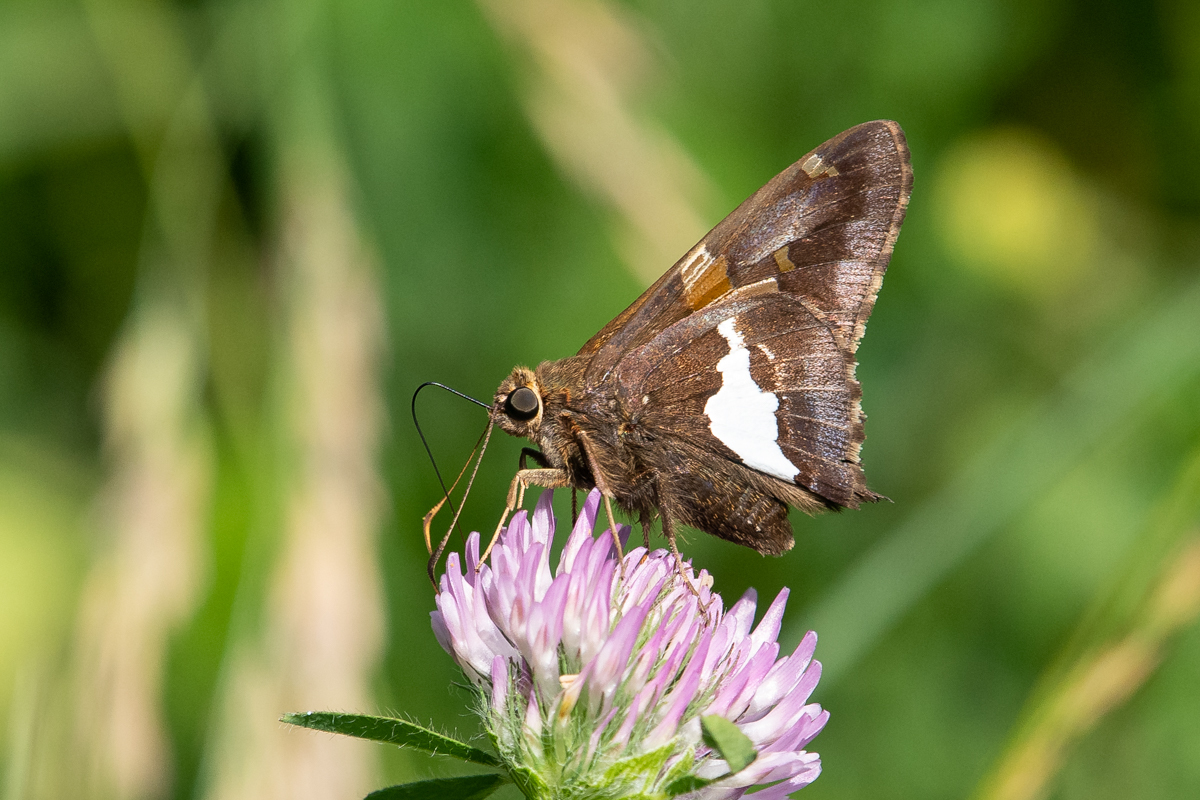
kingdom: Animalia
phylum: Arthropoda
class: Insecta
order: Lepidoptera
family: Hesperiidae
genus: Epargyreus
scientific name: Epargyreus clarus
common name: Silver-spotted skipper
